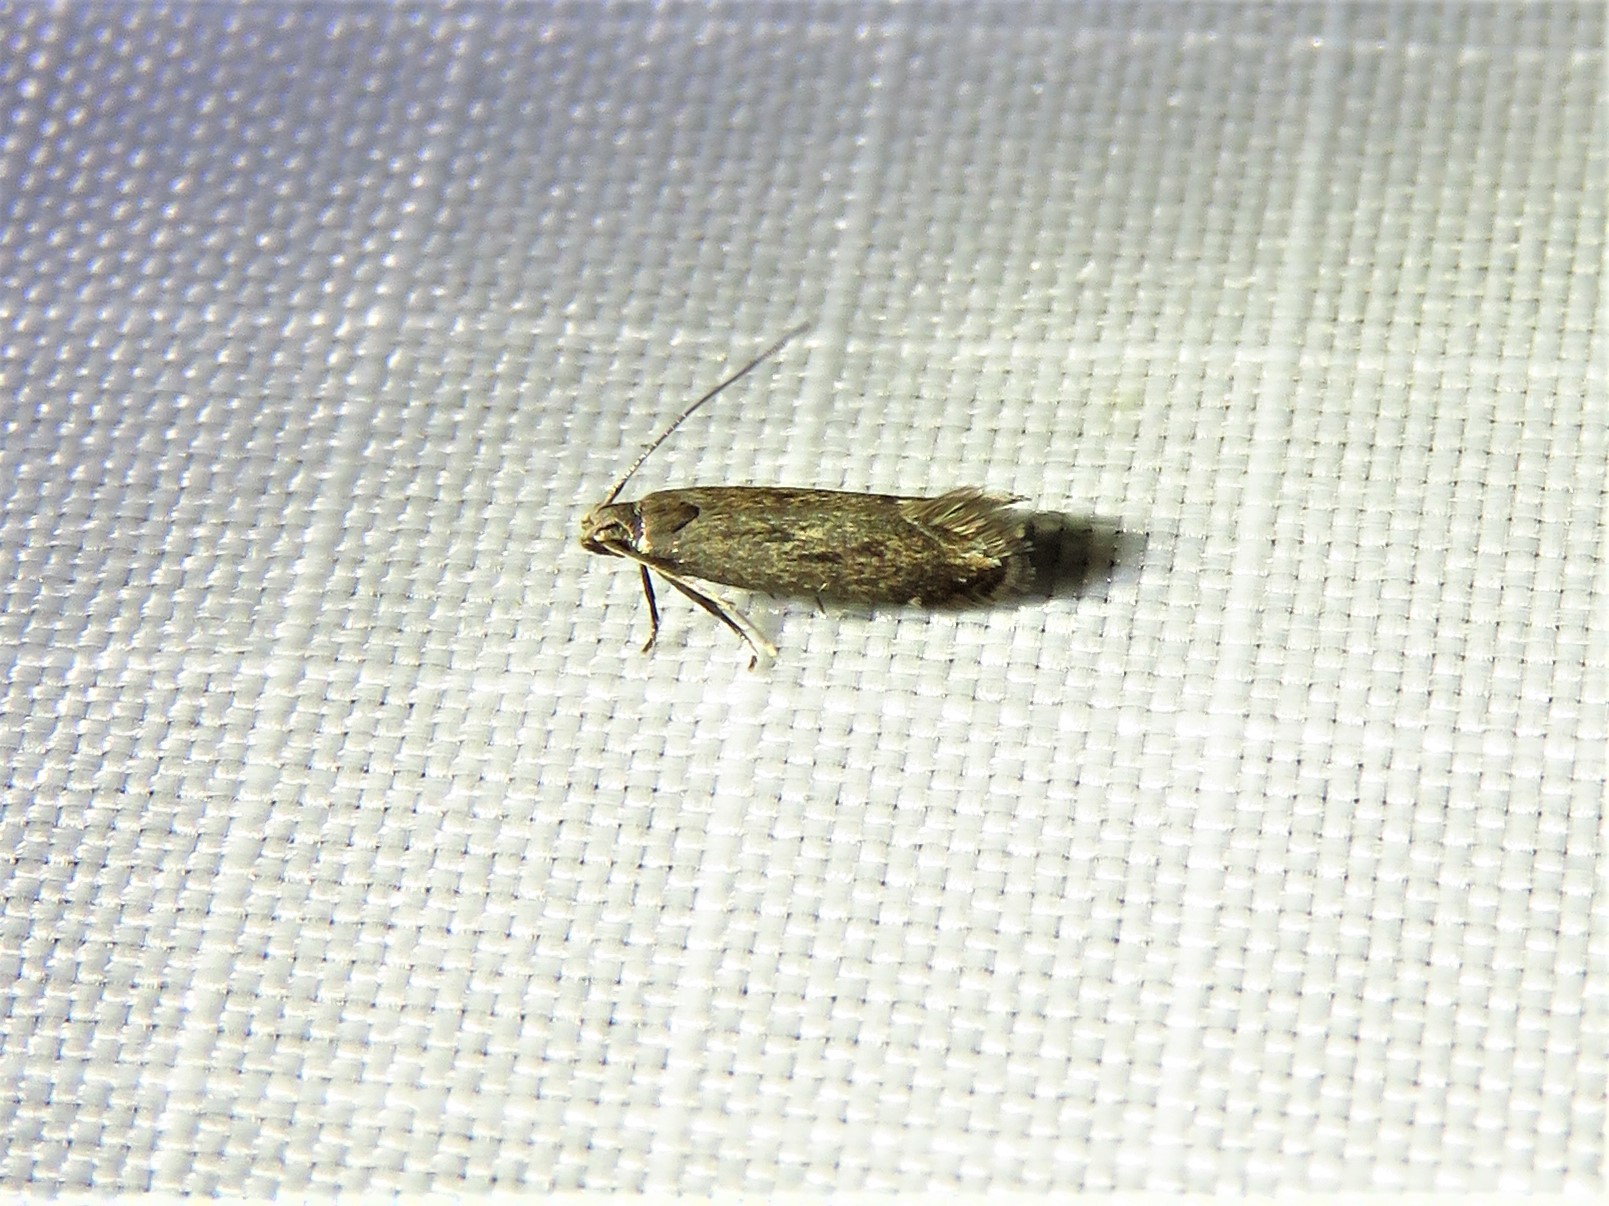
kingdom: Animalia
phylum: Arthropoda
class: Insecta
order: Lepidoptera
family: Gelechiidae
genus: Untomia
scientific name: Untomia albistrigella
